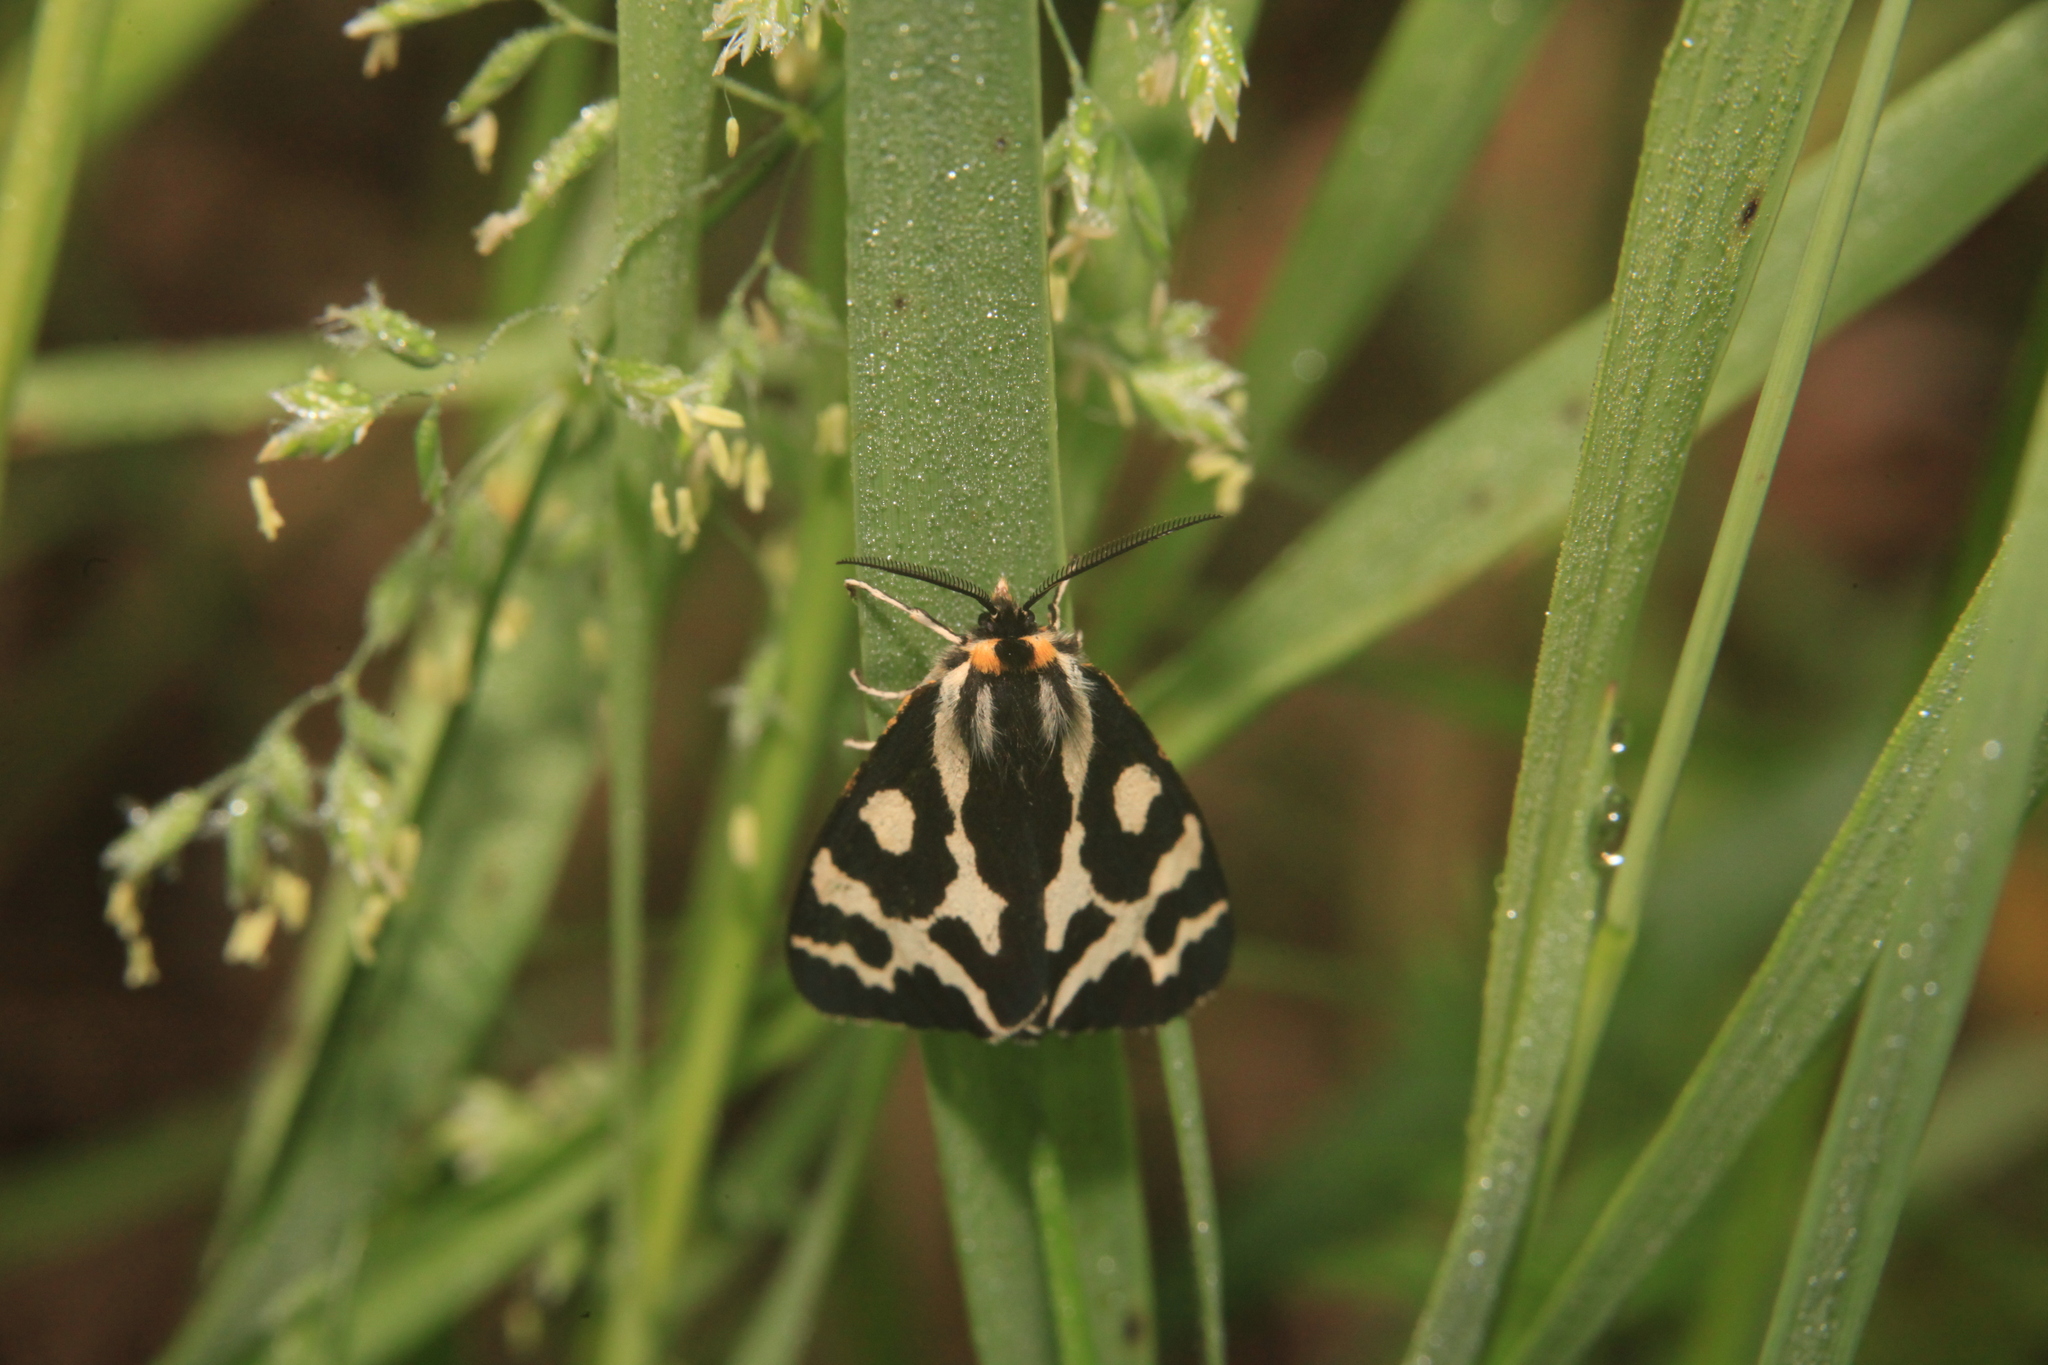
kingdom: Animalia
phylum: Arthropoda
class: Insecta
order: Lepidoptera
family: Erebidae
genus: Parasemia
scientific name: Parasemia plantaginis
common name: Wood tiger
